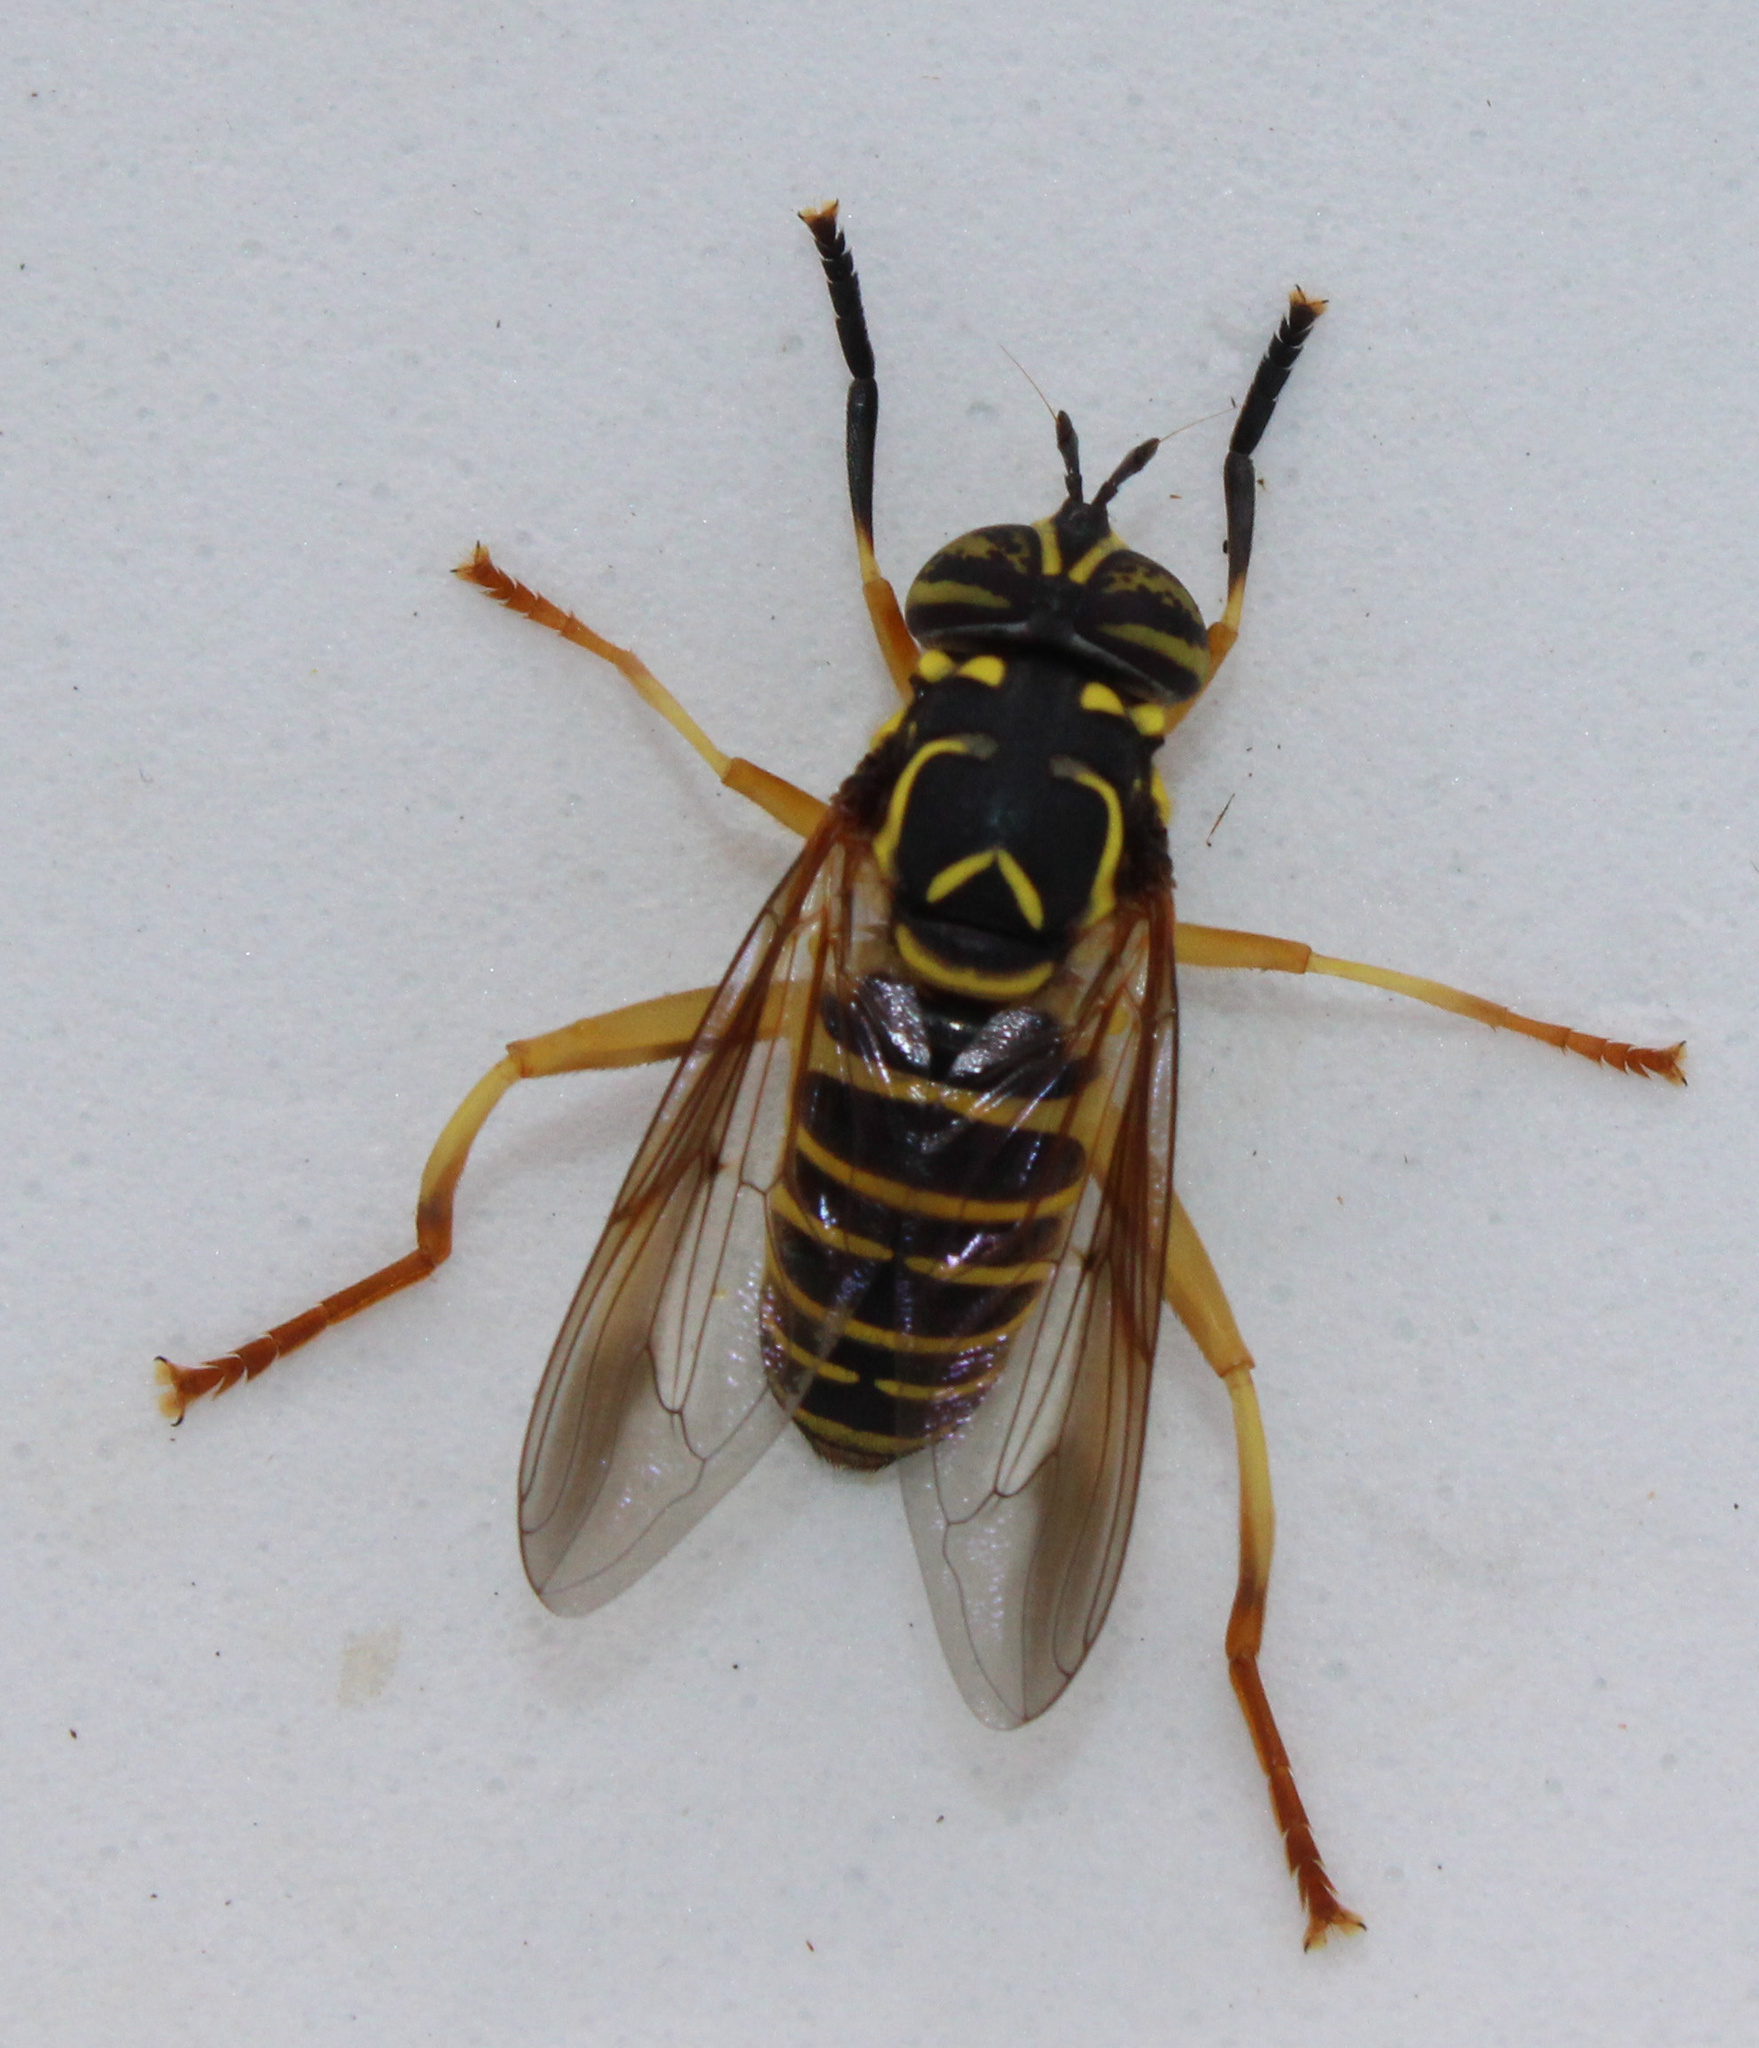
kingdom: Animalia
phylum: Arthropoda
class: Insecta
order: Diptera
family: Syrphidae
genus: Spilomyia
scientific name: Spilomyia longicornis
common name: Eastern hornet fly
